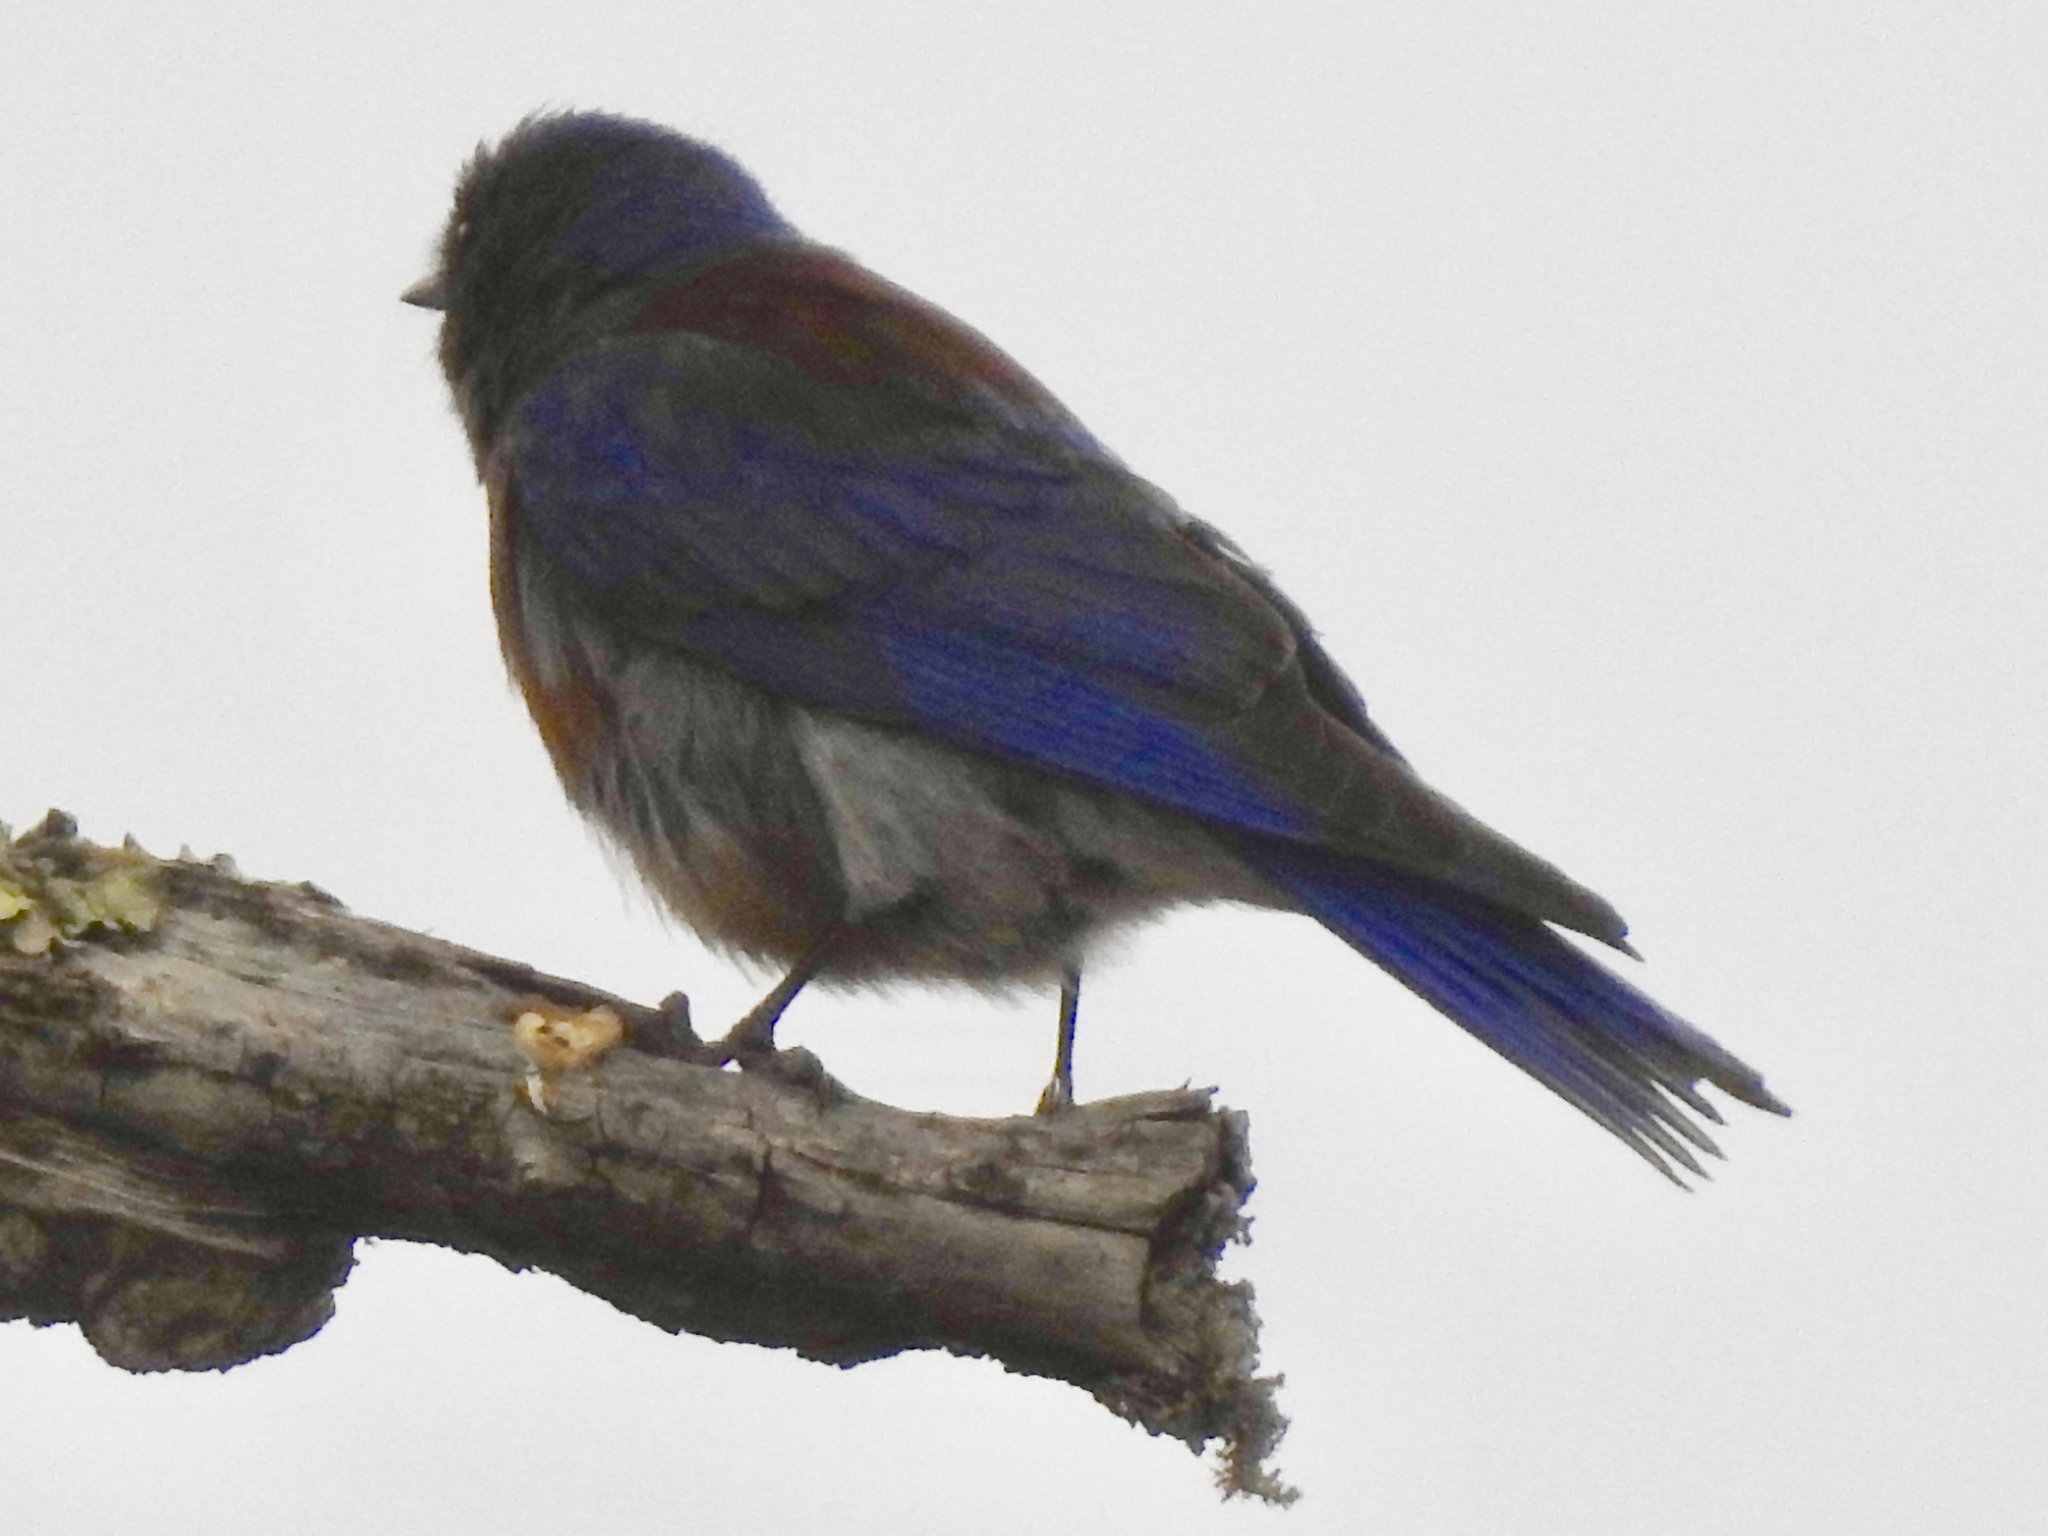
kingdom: Animalia
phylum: Chordata
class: Aves
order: Passeriformes
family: Turdidae
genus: Sialia
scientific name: Sialia mexicana
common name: Western bluebird
